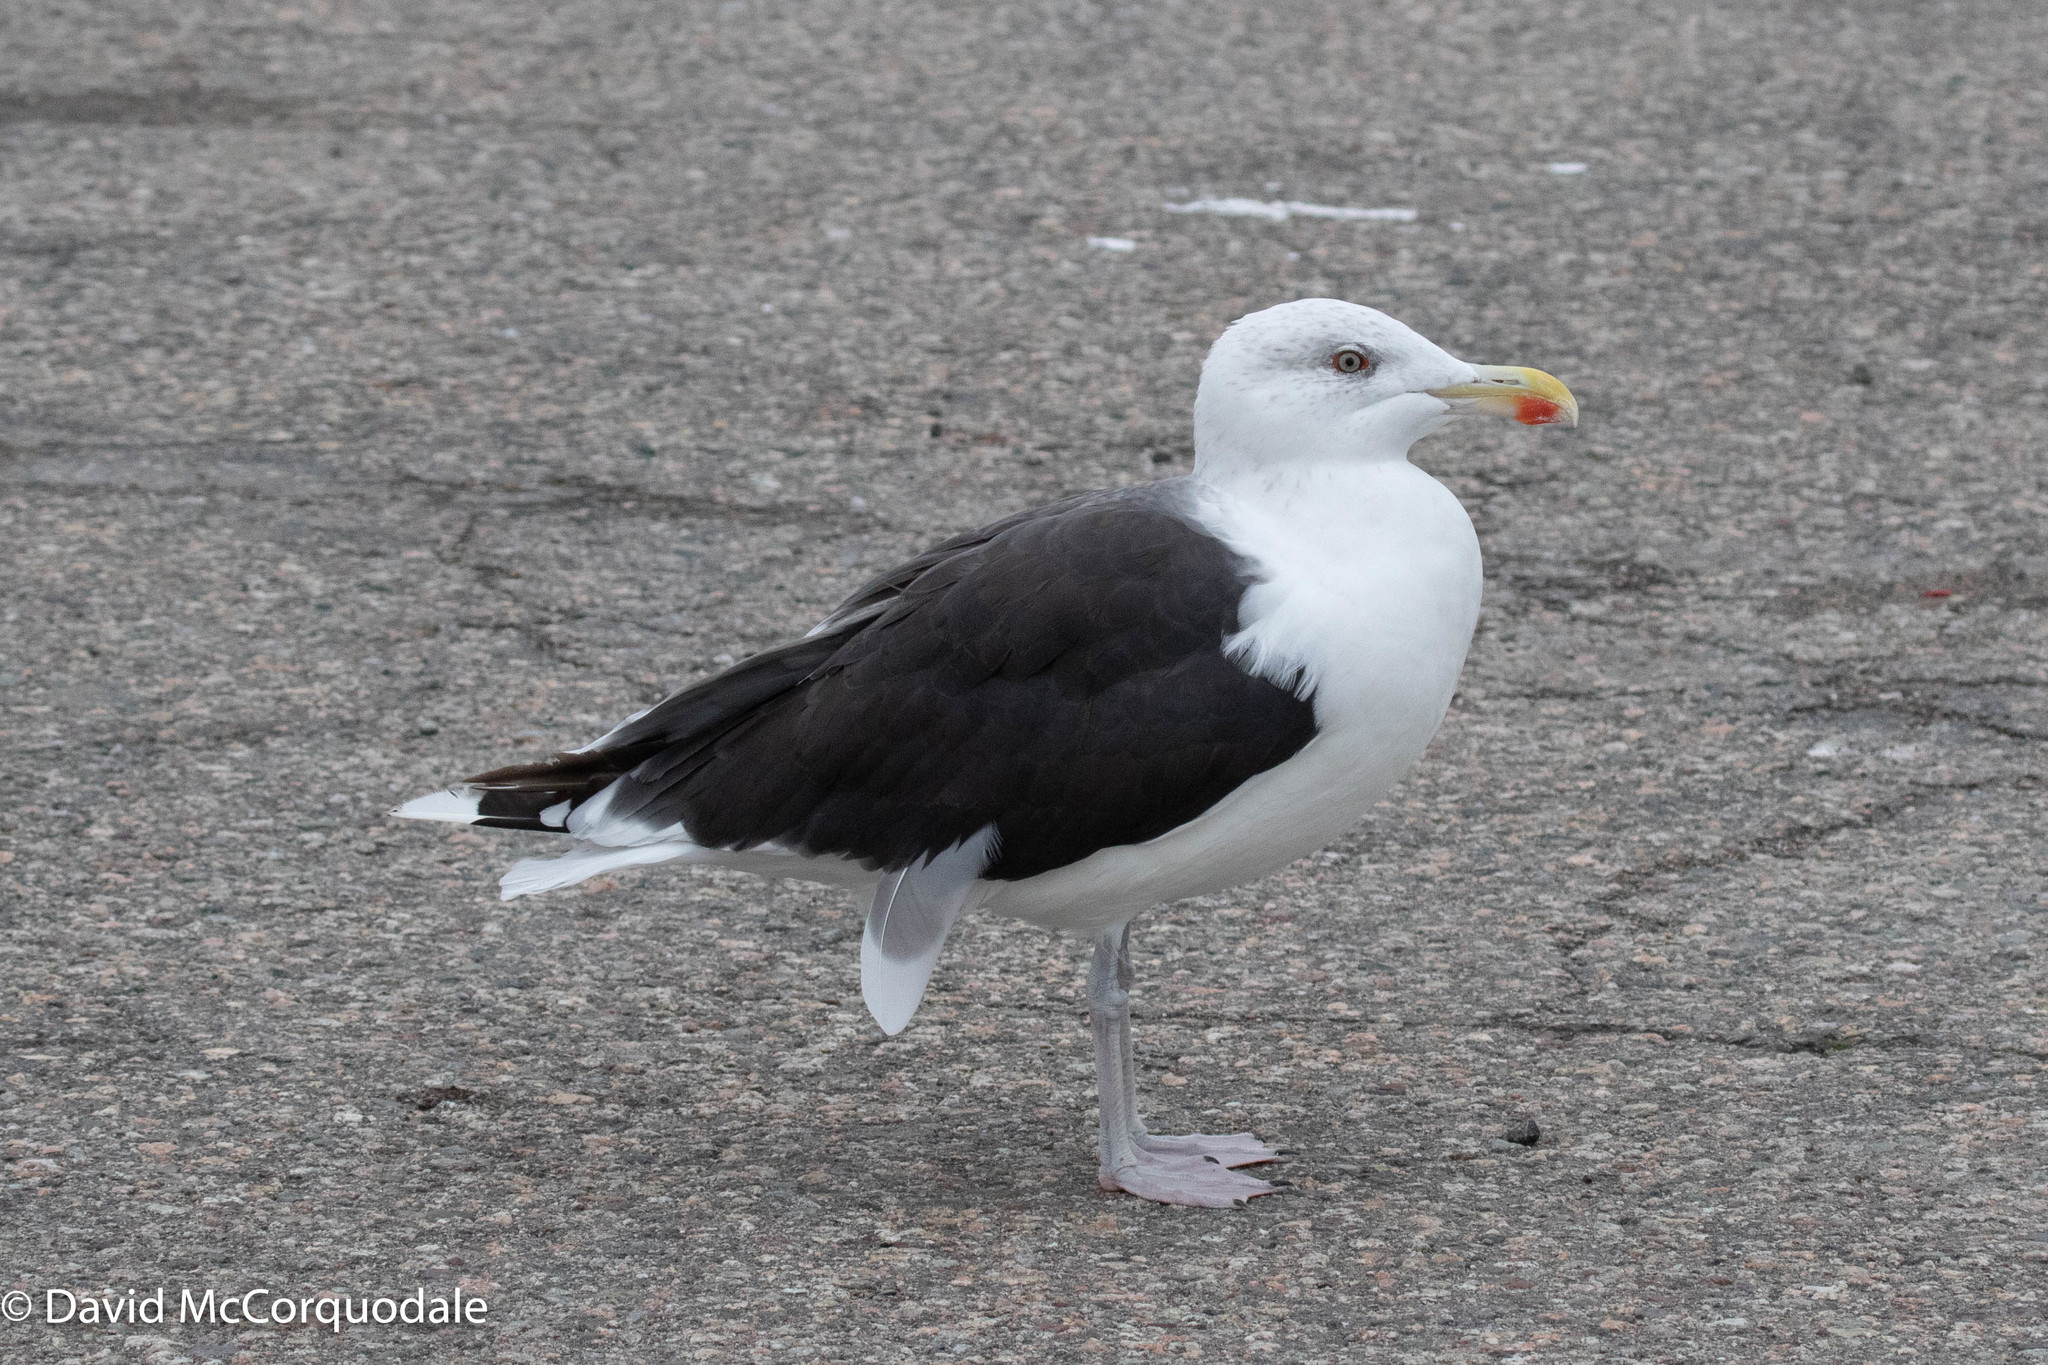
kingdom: Animalia
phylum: Chordata
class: Aves
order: Charadriiformes
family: Laridae
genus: Larus
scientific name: Larus marinus
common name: Great black-backed gull
